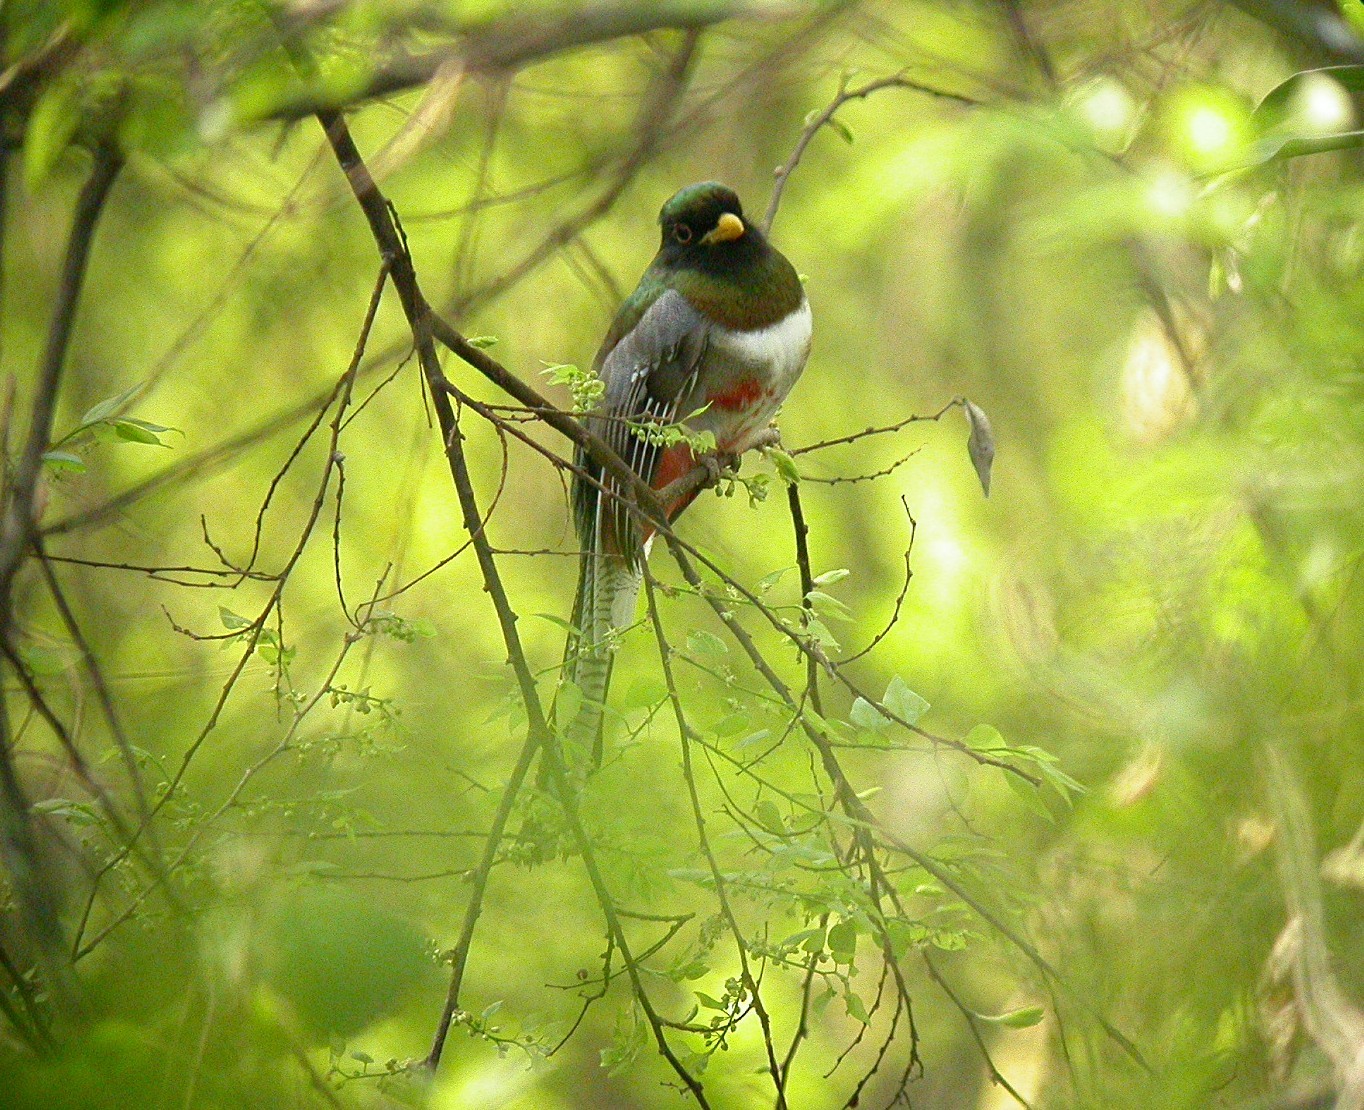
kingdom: Animalia
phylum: Chordata
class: Aves
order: Trogoniformes
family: Trogonidae
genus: Trogon
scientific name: Trogon elegans
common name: Elegant trogon
